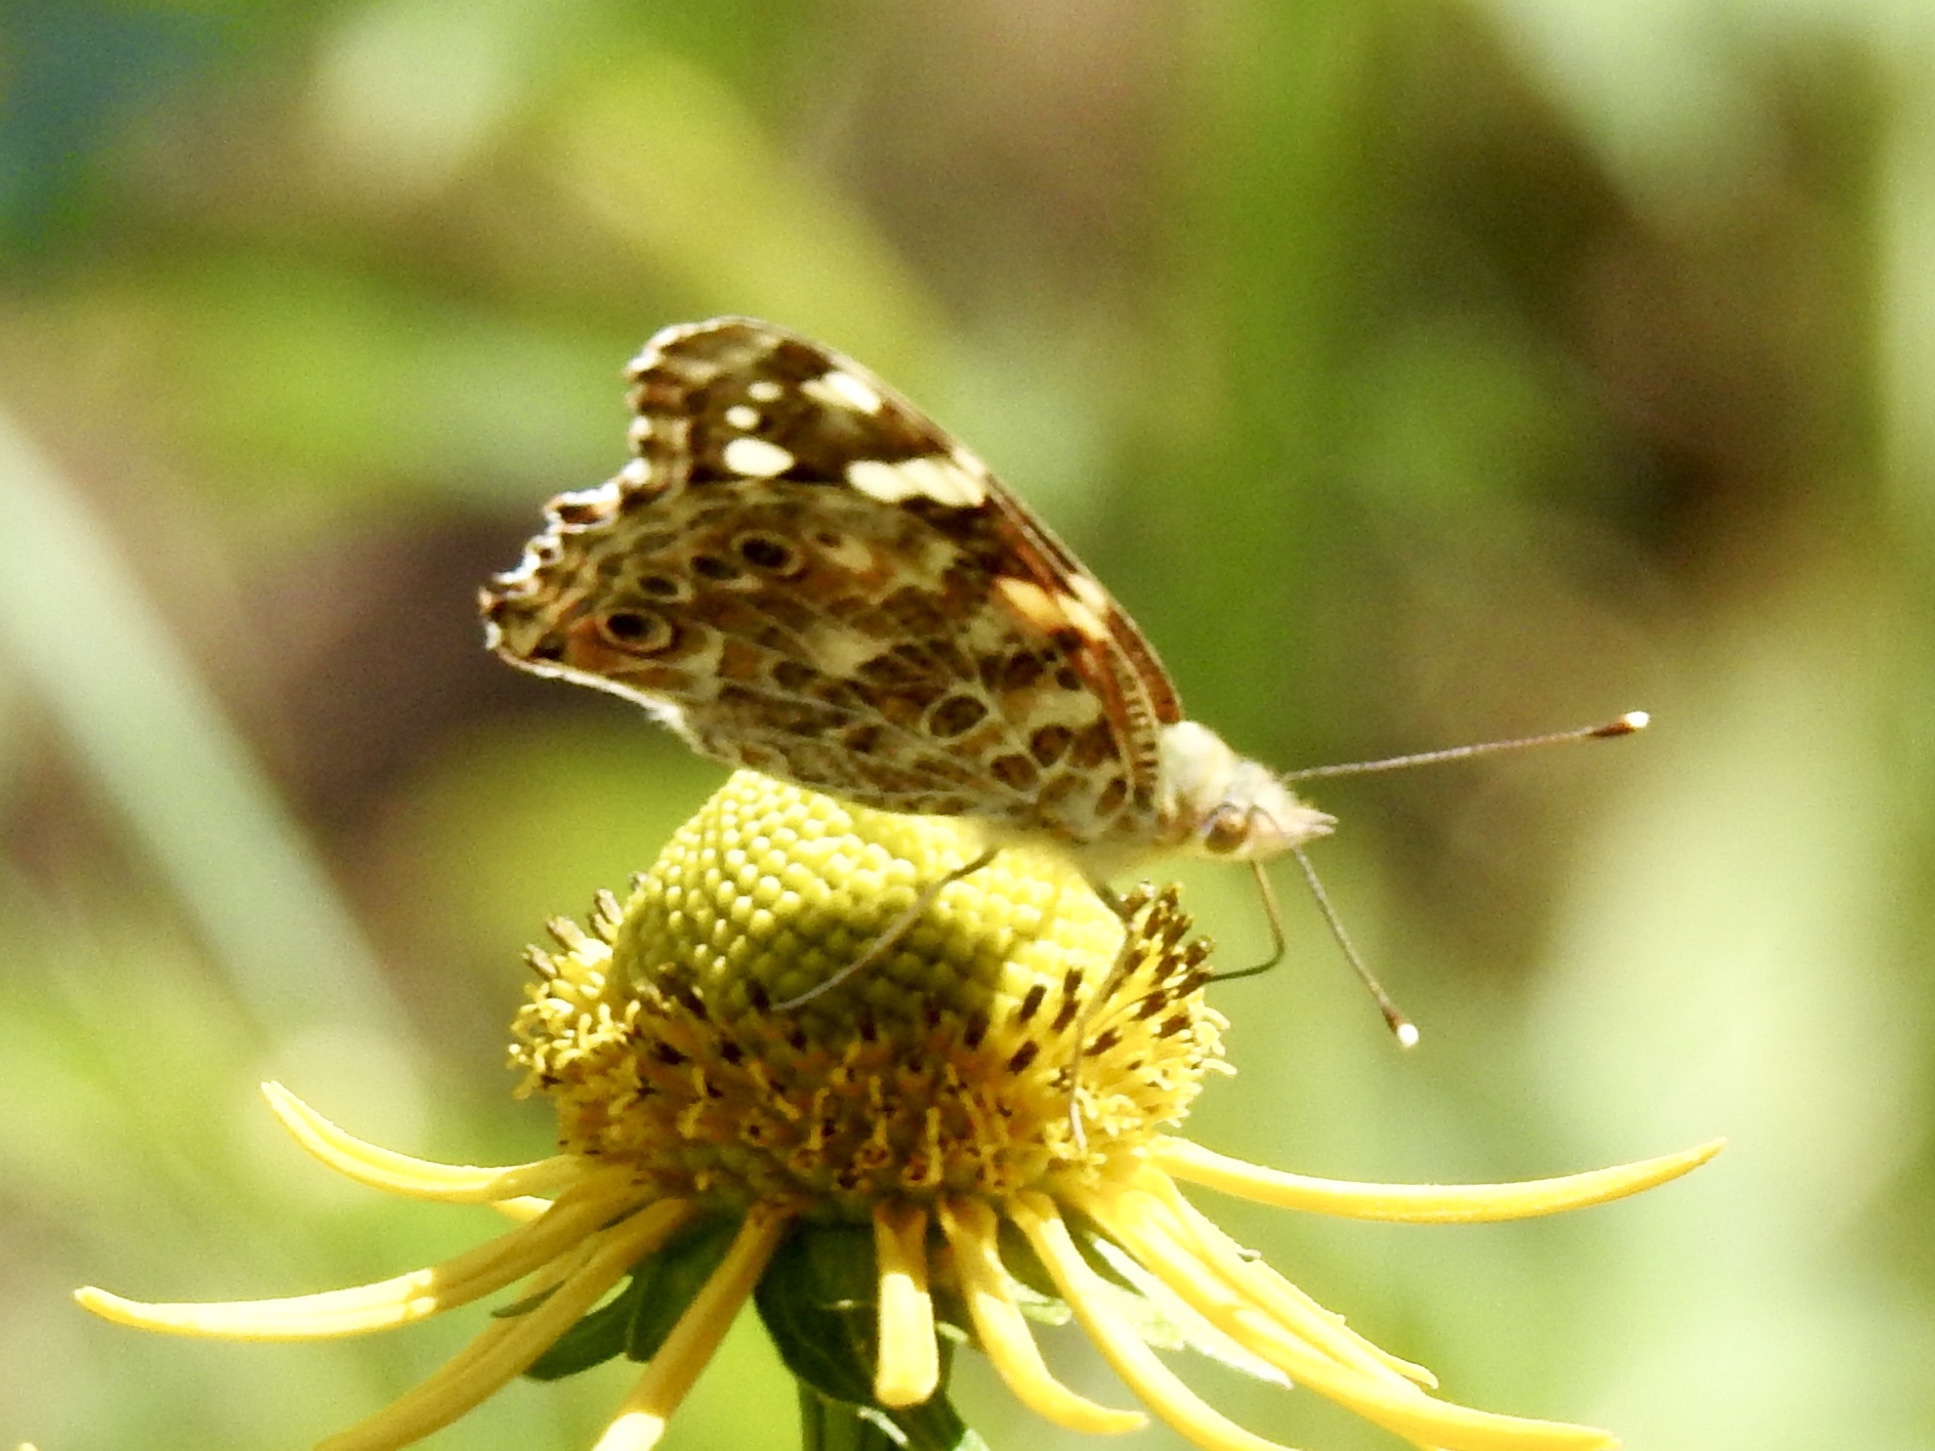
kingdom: Animalia
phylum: Arthropoda
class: Insecta
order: Lepidoptera
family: Nymphalidae
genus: Vanessa
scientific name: Vanessa cardui
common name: Painted lady
